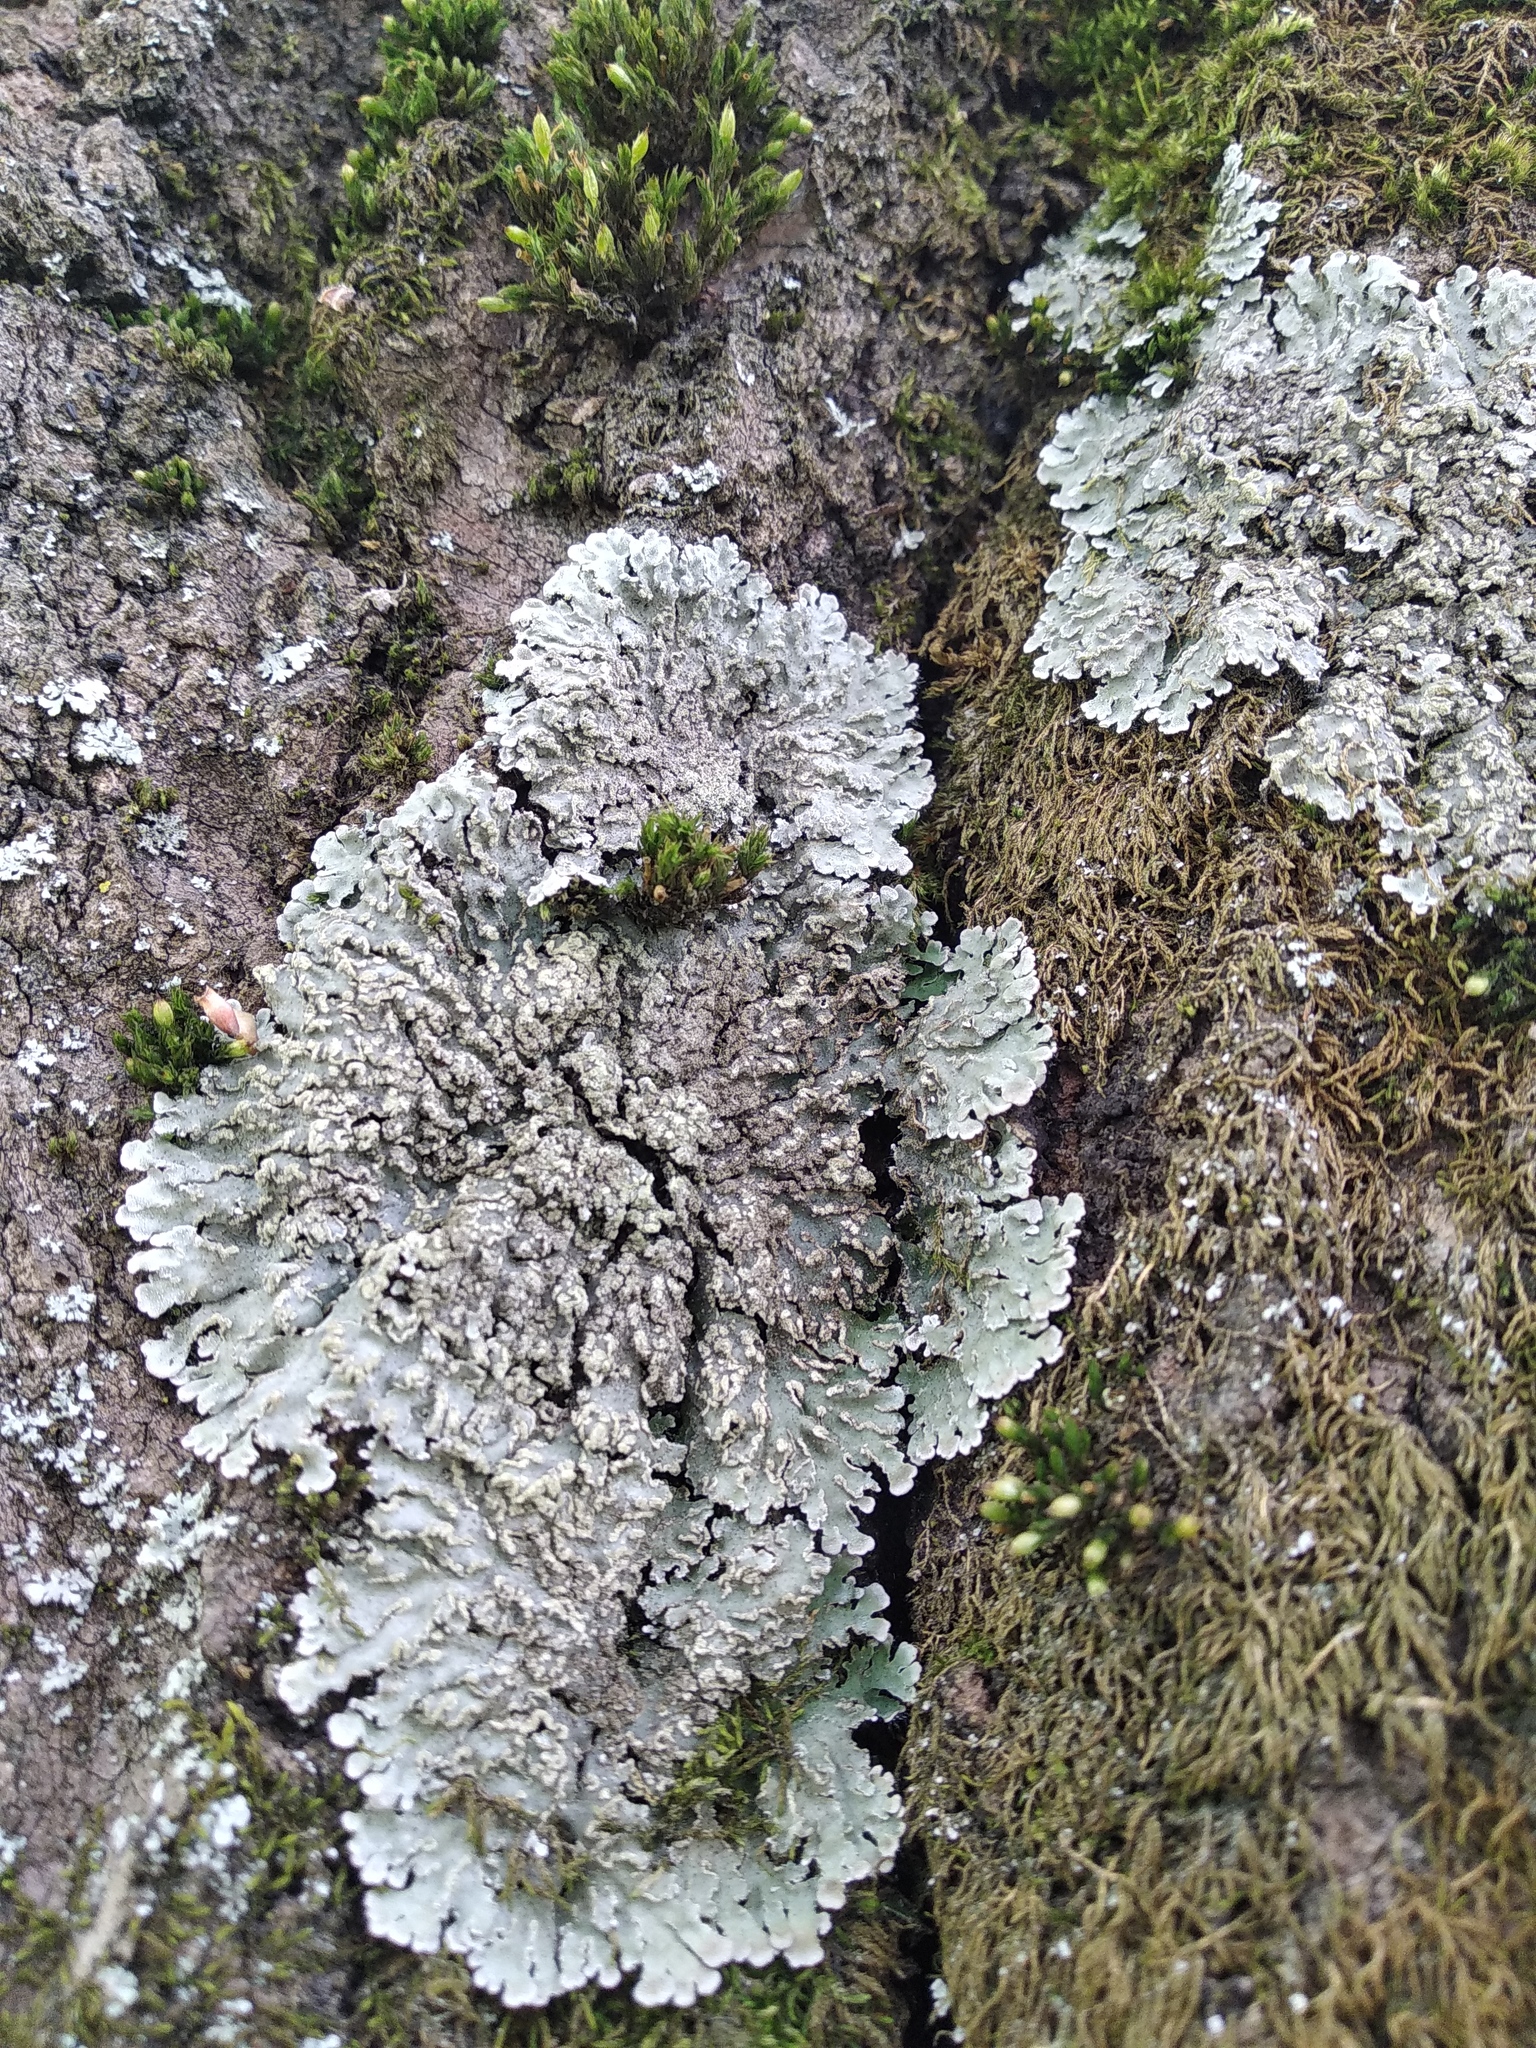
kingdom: Fungi
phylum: Ascomycota
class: Lecanoromycetes
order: Caliciales
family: Physciaceae
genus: Physconia
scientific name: Physconia enteroxantha
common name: Yellow-edged frost lichen
